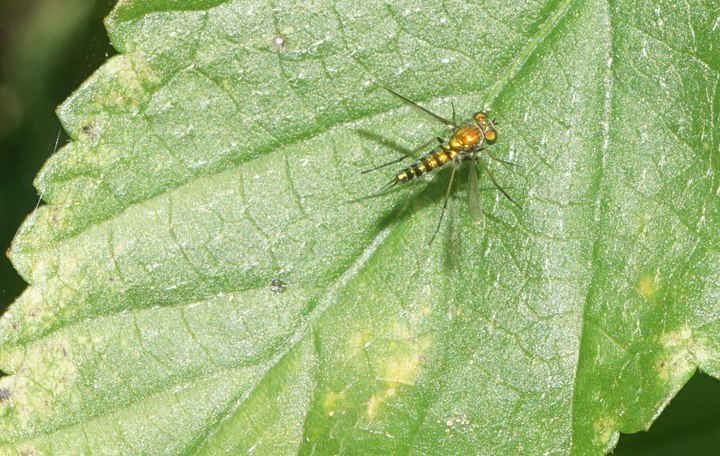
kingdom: Animalia
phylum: Arthropoda
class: Insecta
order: Diptera
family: Dolichopodidae
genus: Condylostylus
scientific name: Condylostylus graenicheri
